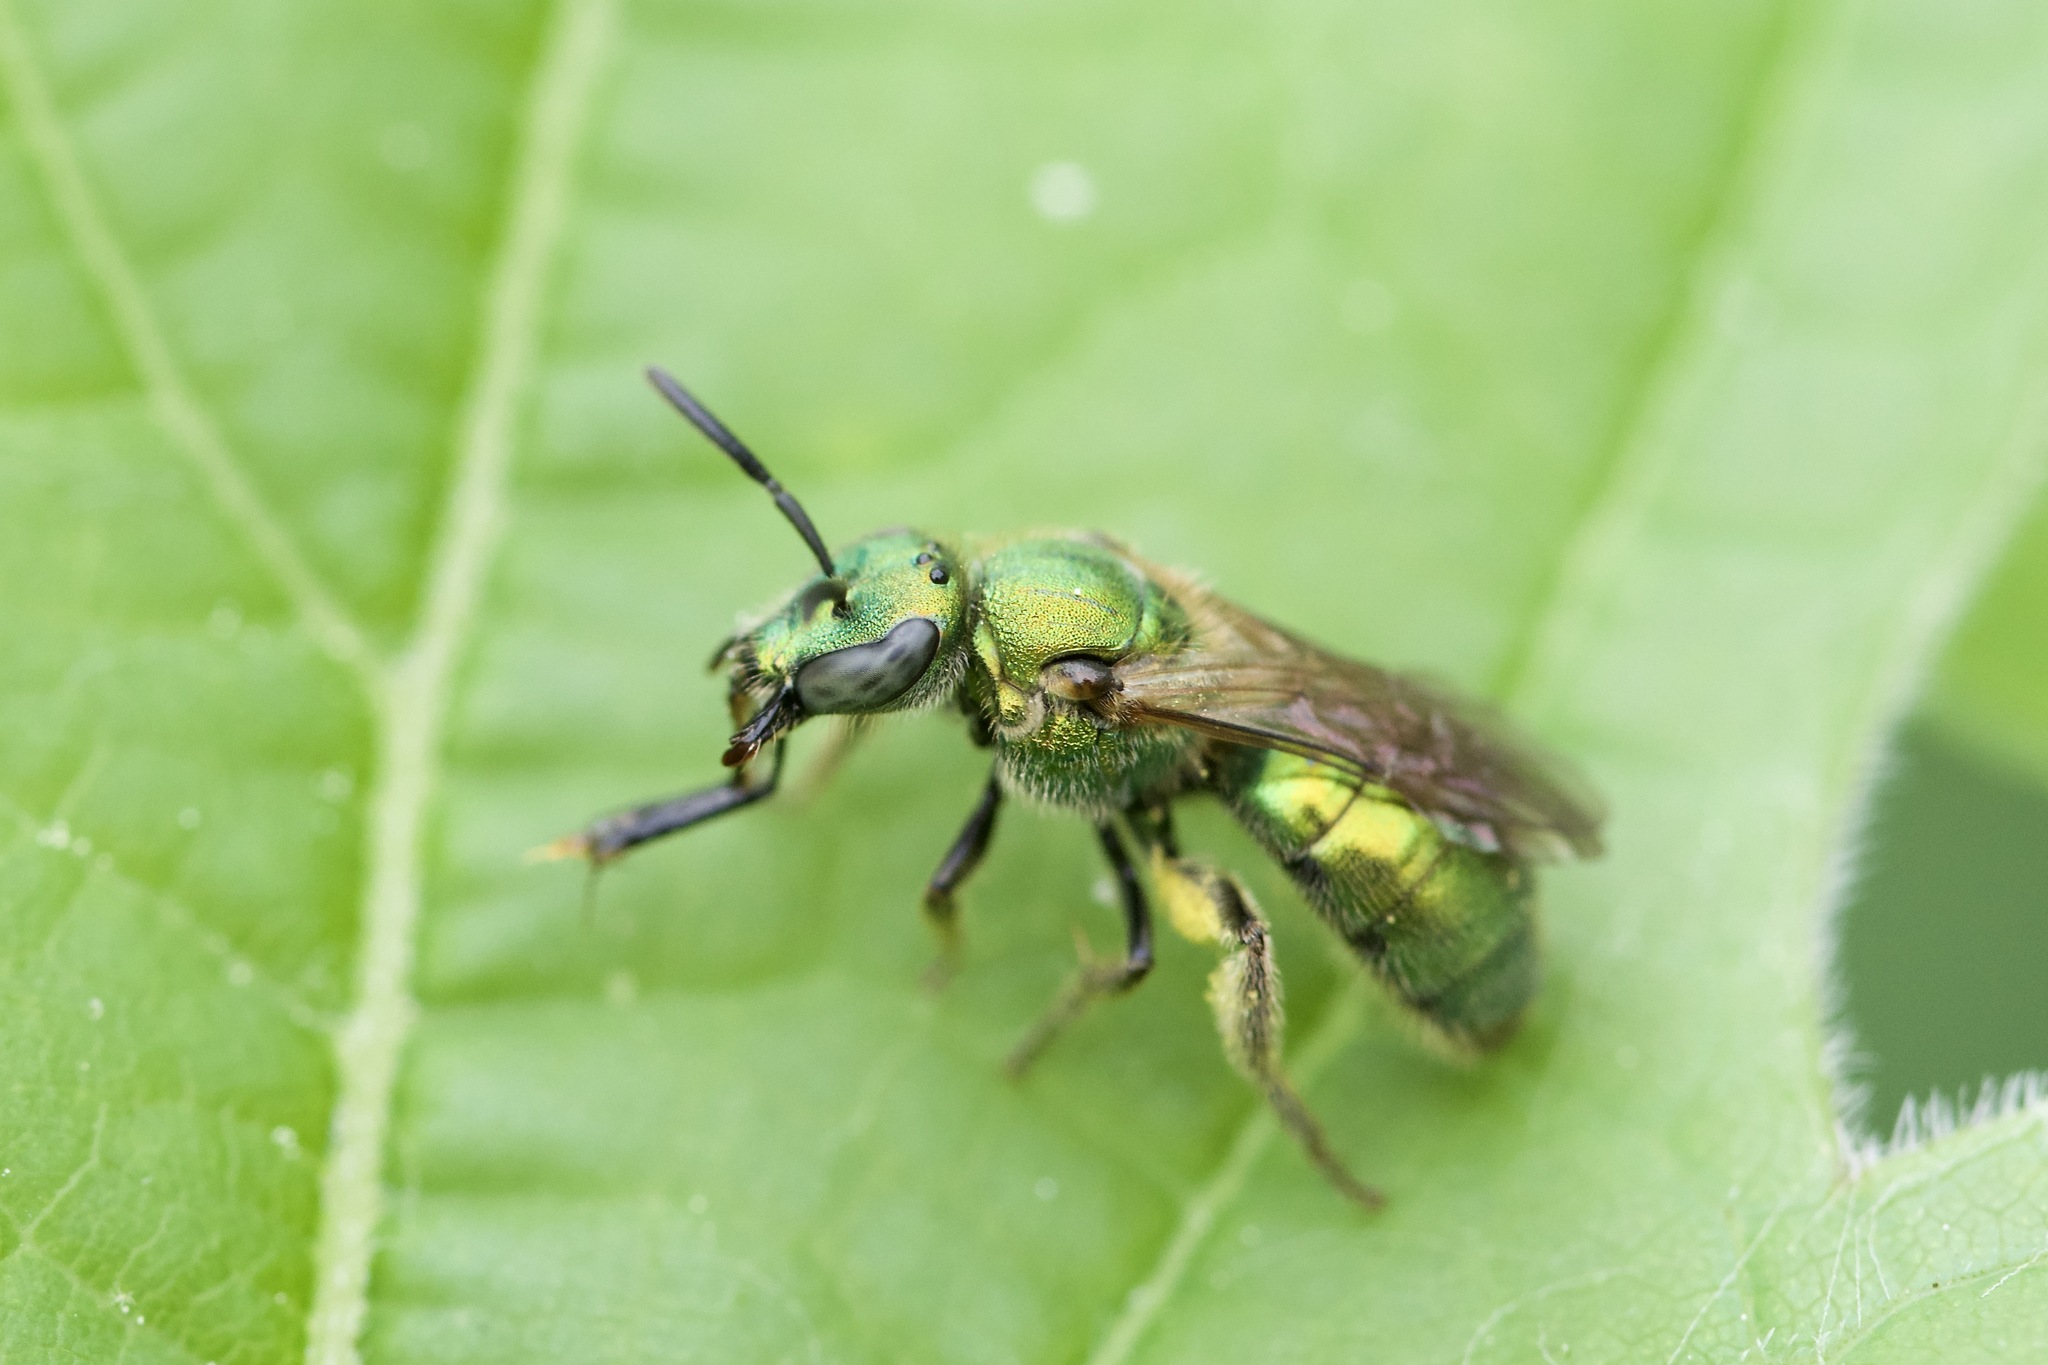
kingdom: Animalia
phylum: Arthropoda
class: Insecta
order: Hymenoptera
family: Halictidae
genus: Augochlorella
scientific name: Augochlorella aurata
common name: Golden sweat bee
